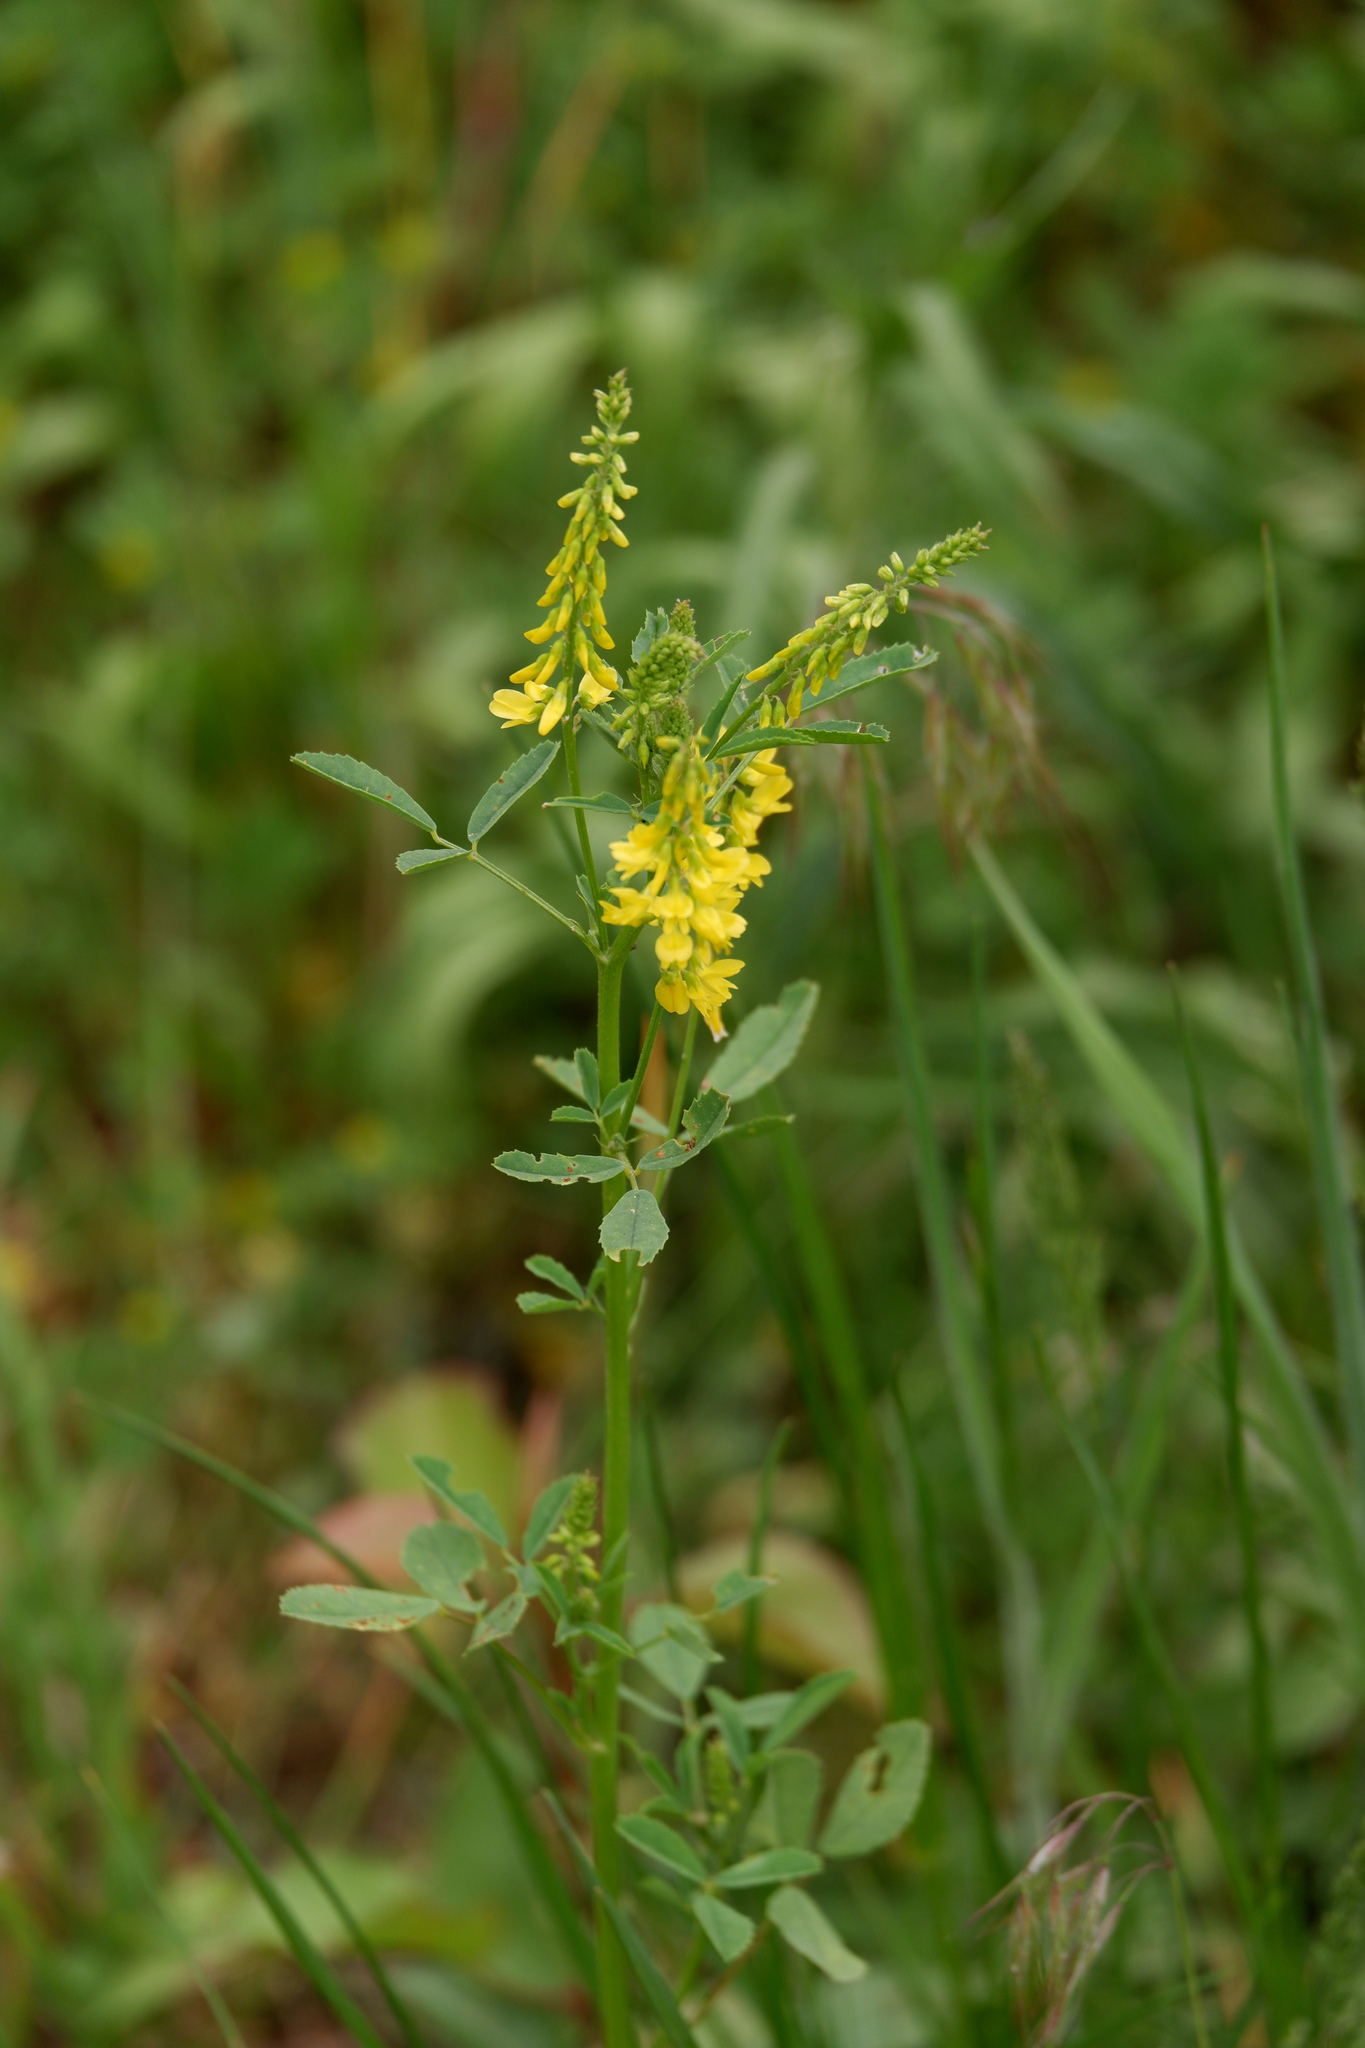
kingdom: Plantae
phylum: Tracheophyta
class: Magnoliopsida
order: Fabales
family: Fabaceae
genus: Melilotus
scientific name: Melilotus officinalis
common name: Sweetclover
